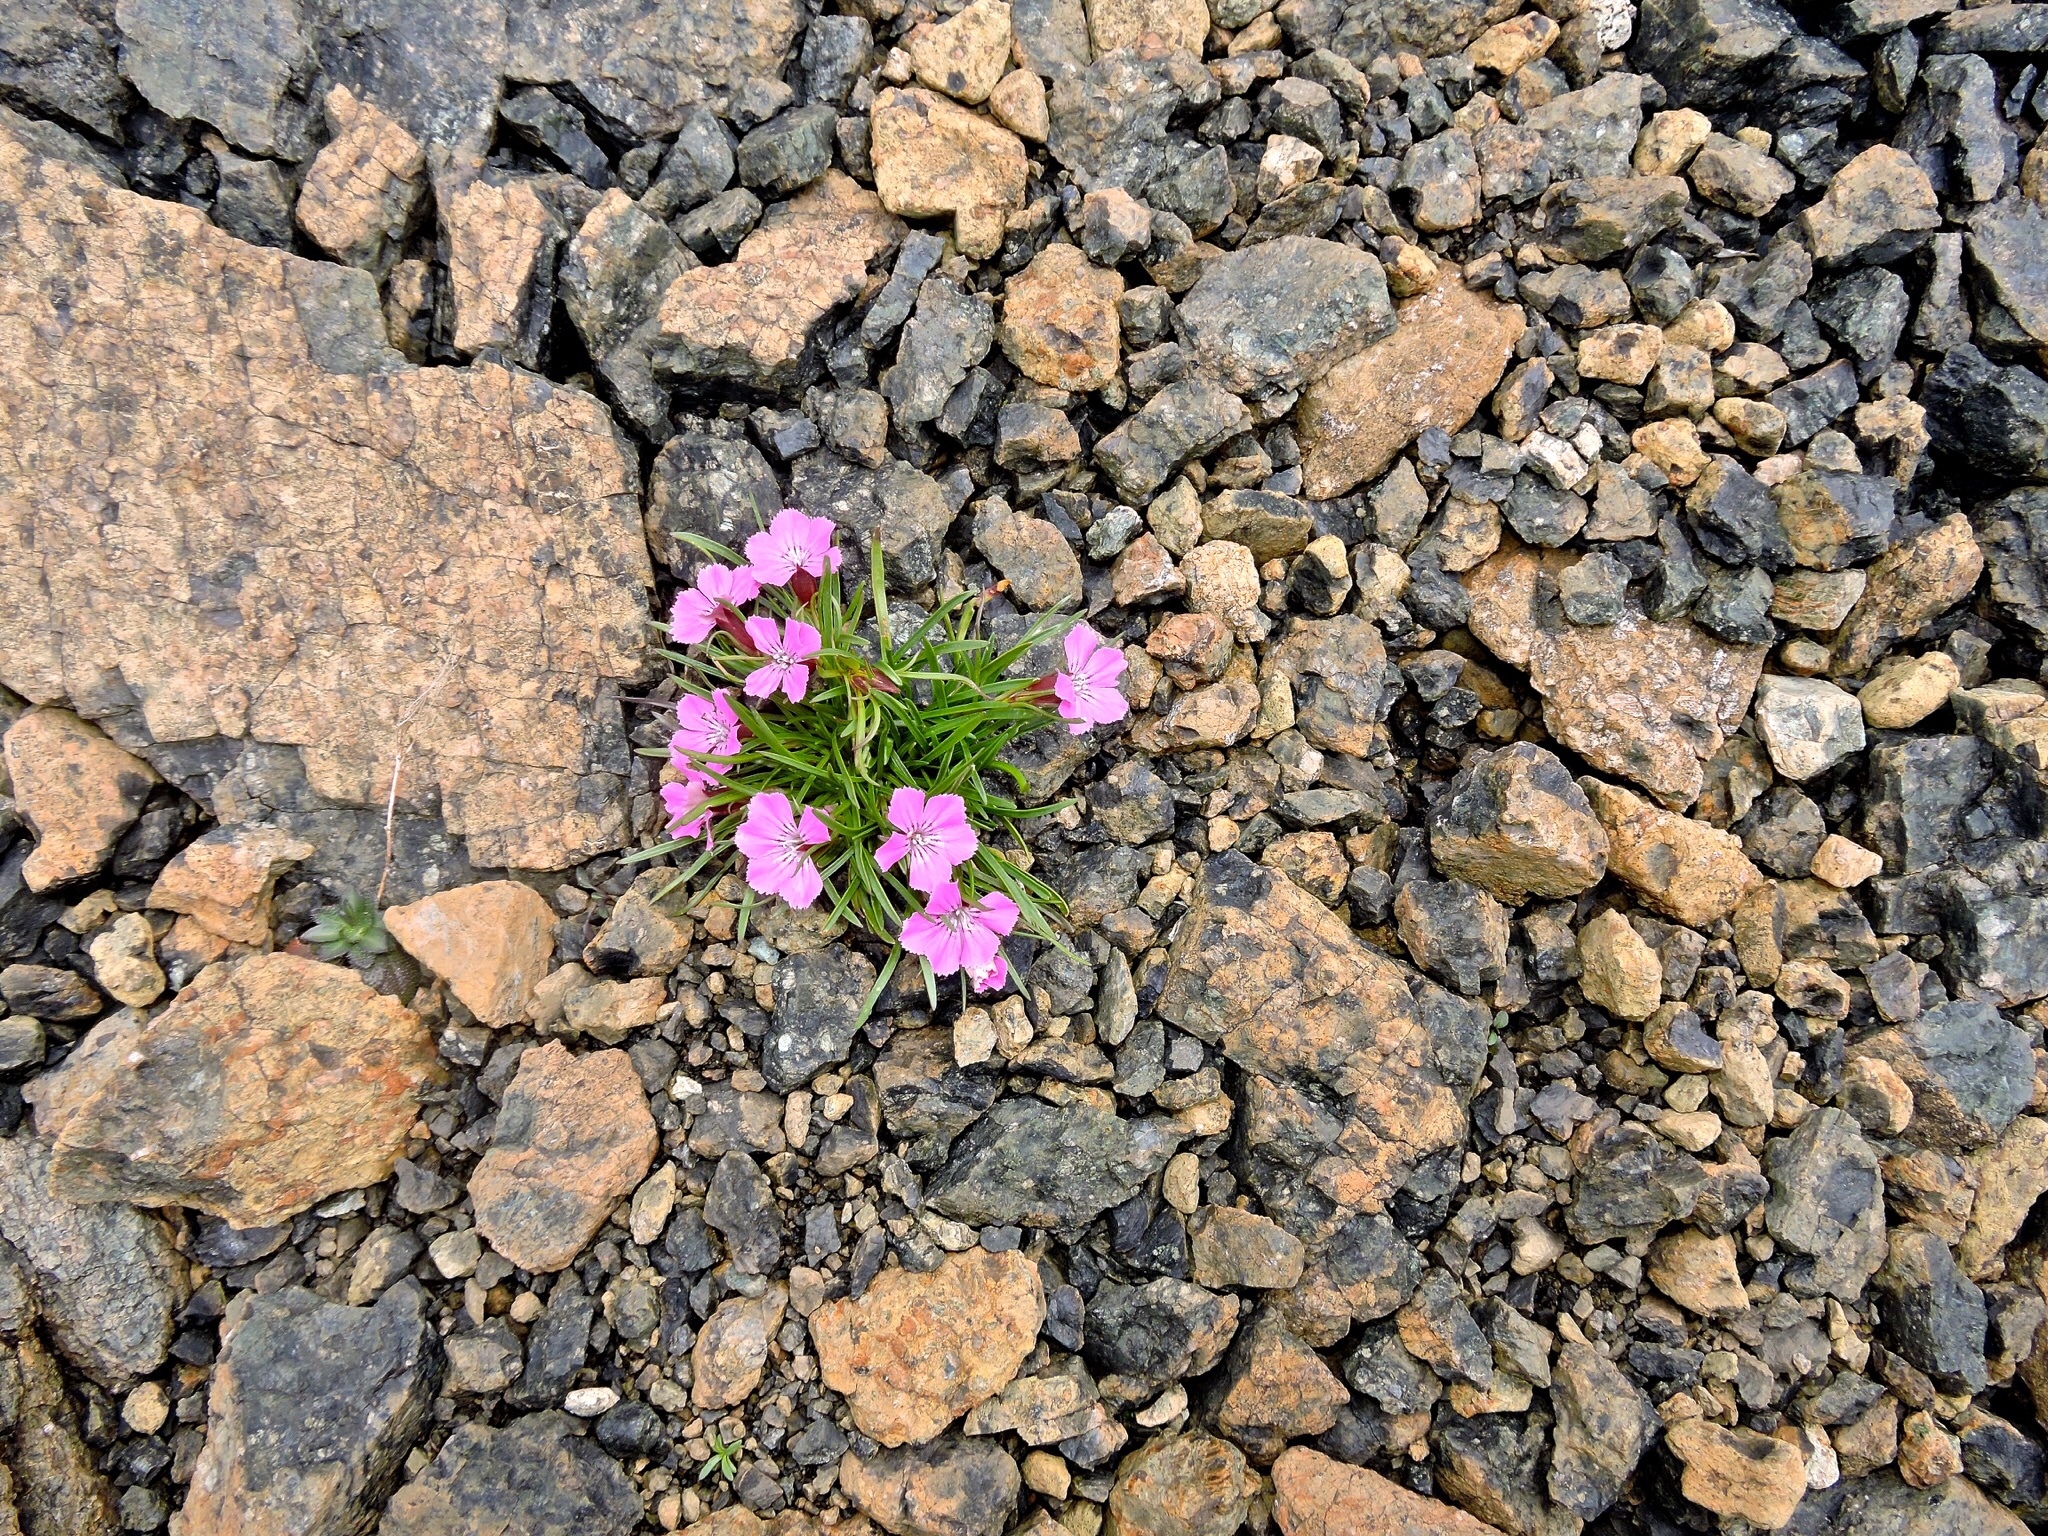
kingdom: Plantae
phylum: Tracheophyta
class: Magnoliopsida
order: Caryophyllales
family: Caryophyllaceae
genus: Dianthus
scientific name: Dianthus glacialis
